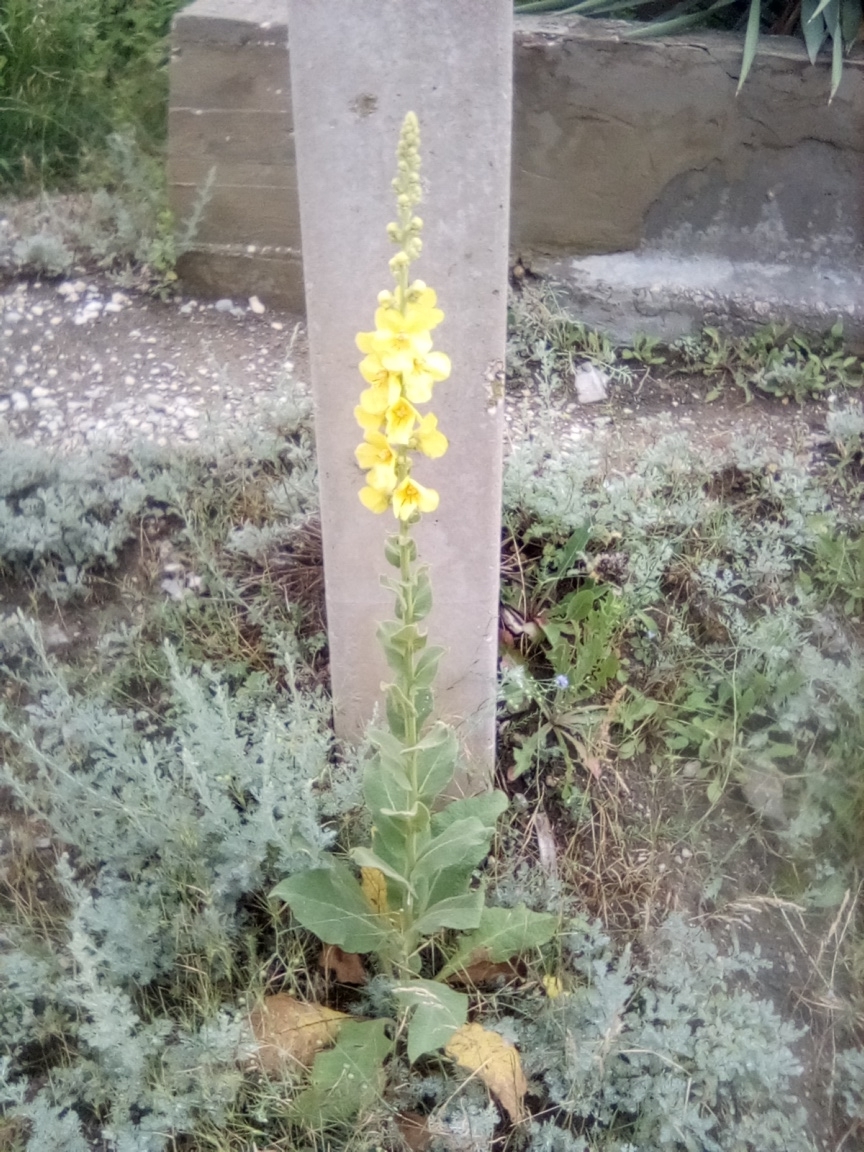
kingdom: Plantae
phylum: Tracheophyta
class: Magnoliopsida
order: Lamiales
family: Scrophulariaceae
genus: Verbascum
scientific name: Verbascum densiflorum
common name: Dense-flowered mullein
